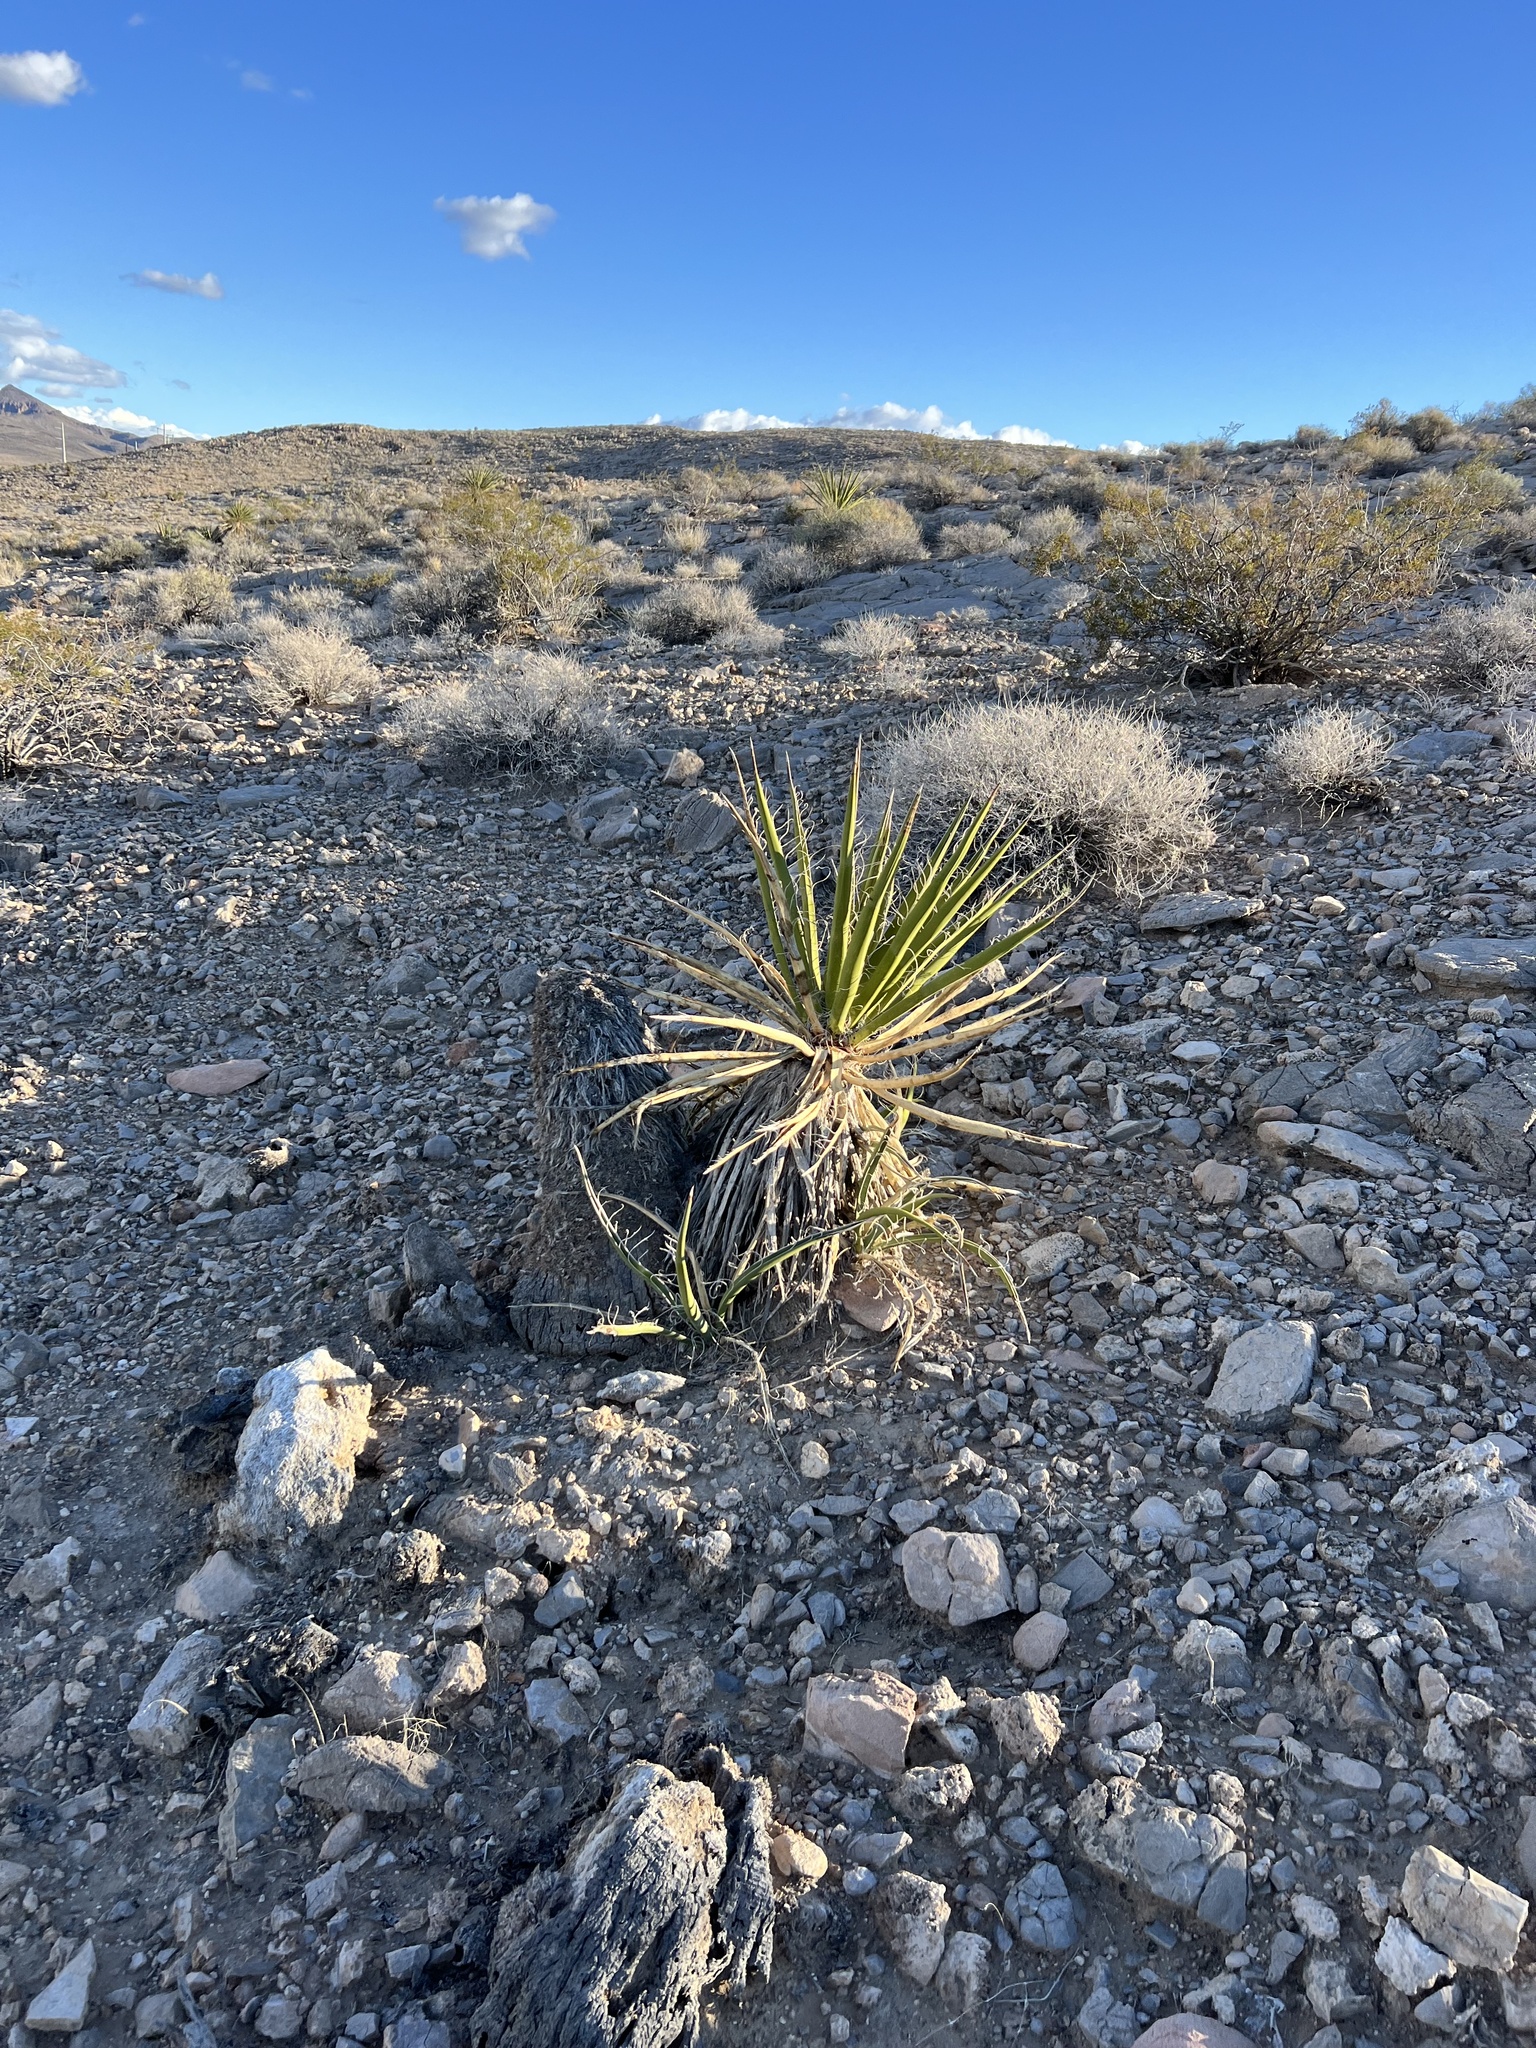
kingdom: Plantae
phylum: Tracheophyta
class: Liliopsida
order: Asparagales
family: Asparagaceae
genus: Yucca
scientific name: Yucca schidigera
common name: Mojave yucca
